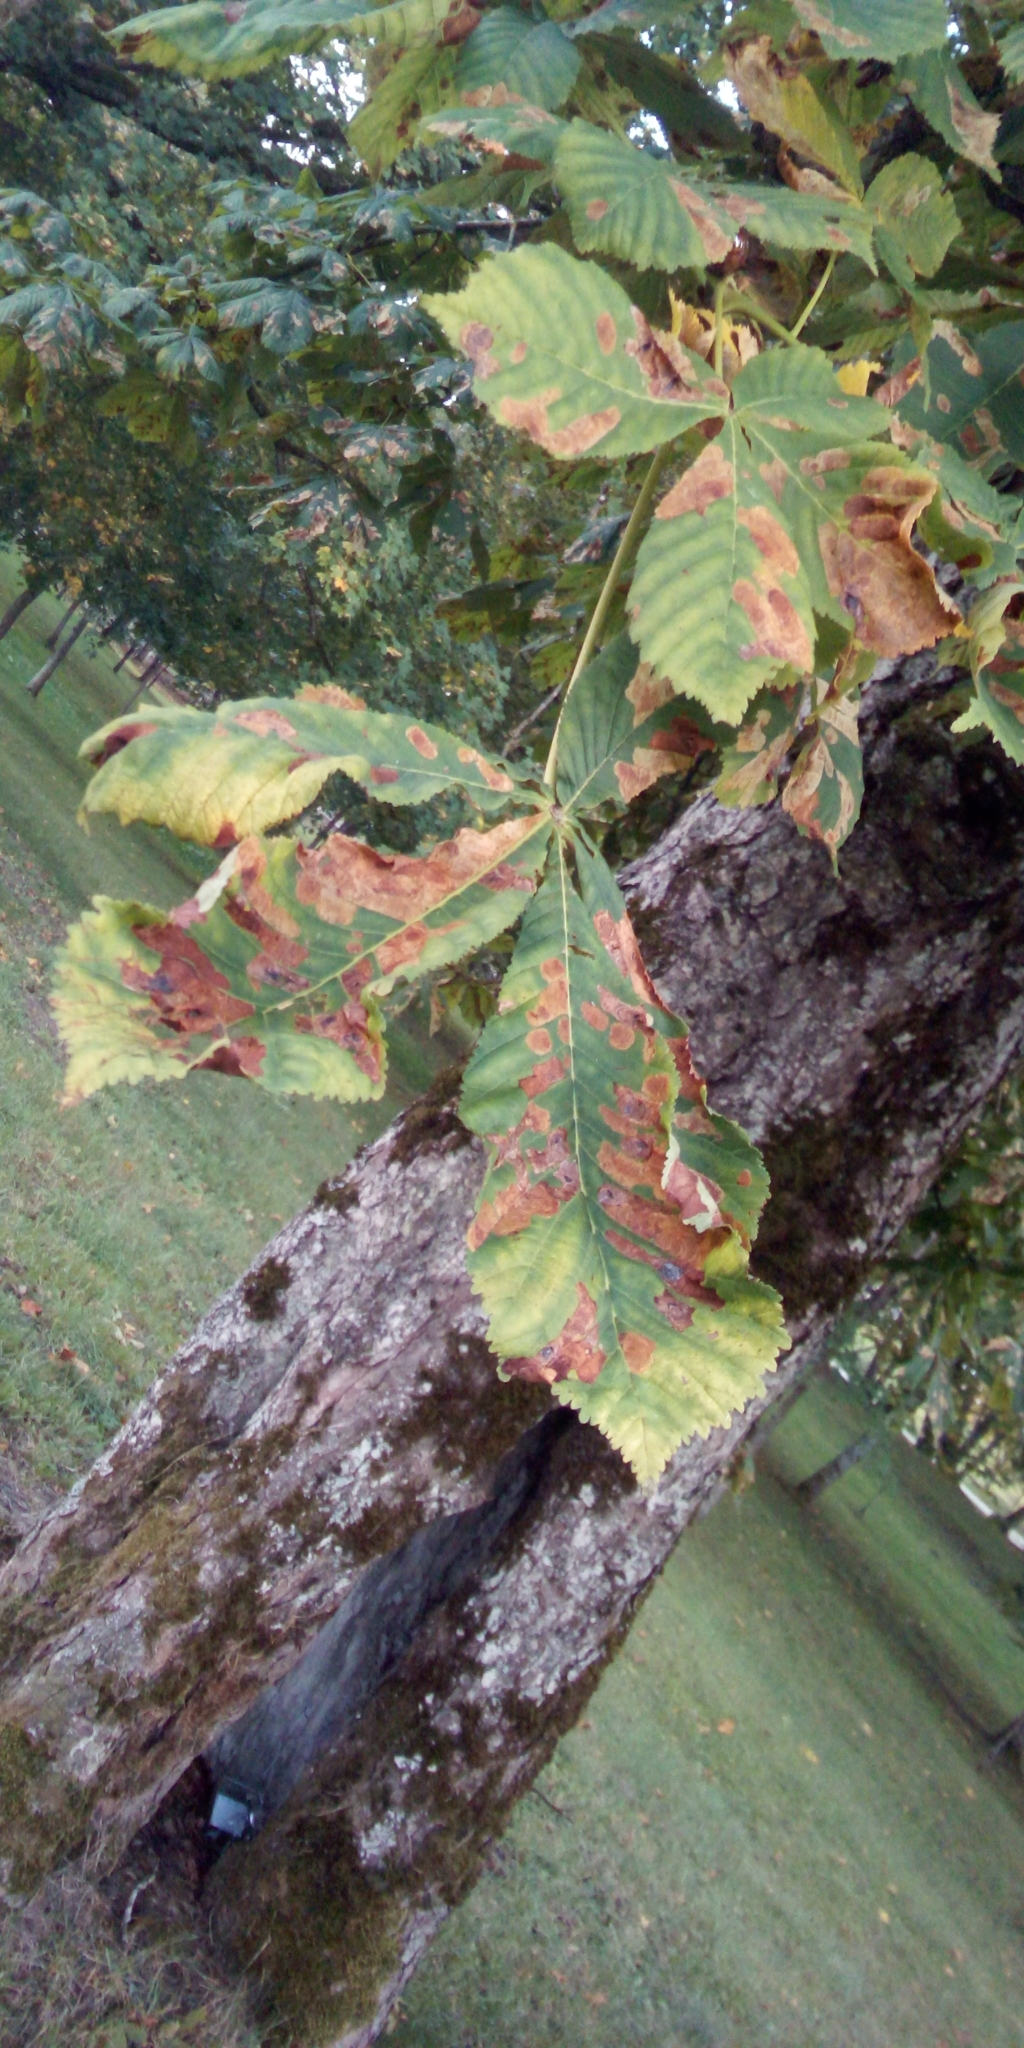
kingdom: Animalia
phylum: Arthropoda
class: Insecta
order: Lepidoptera
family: Gracillariidae
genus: Cameraria
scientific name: Cameraria ohridella
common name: Horse-chestnut leaf-miner
